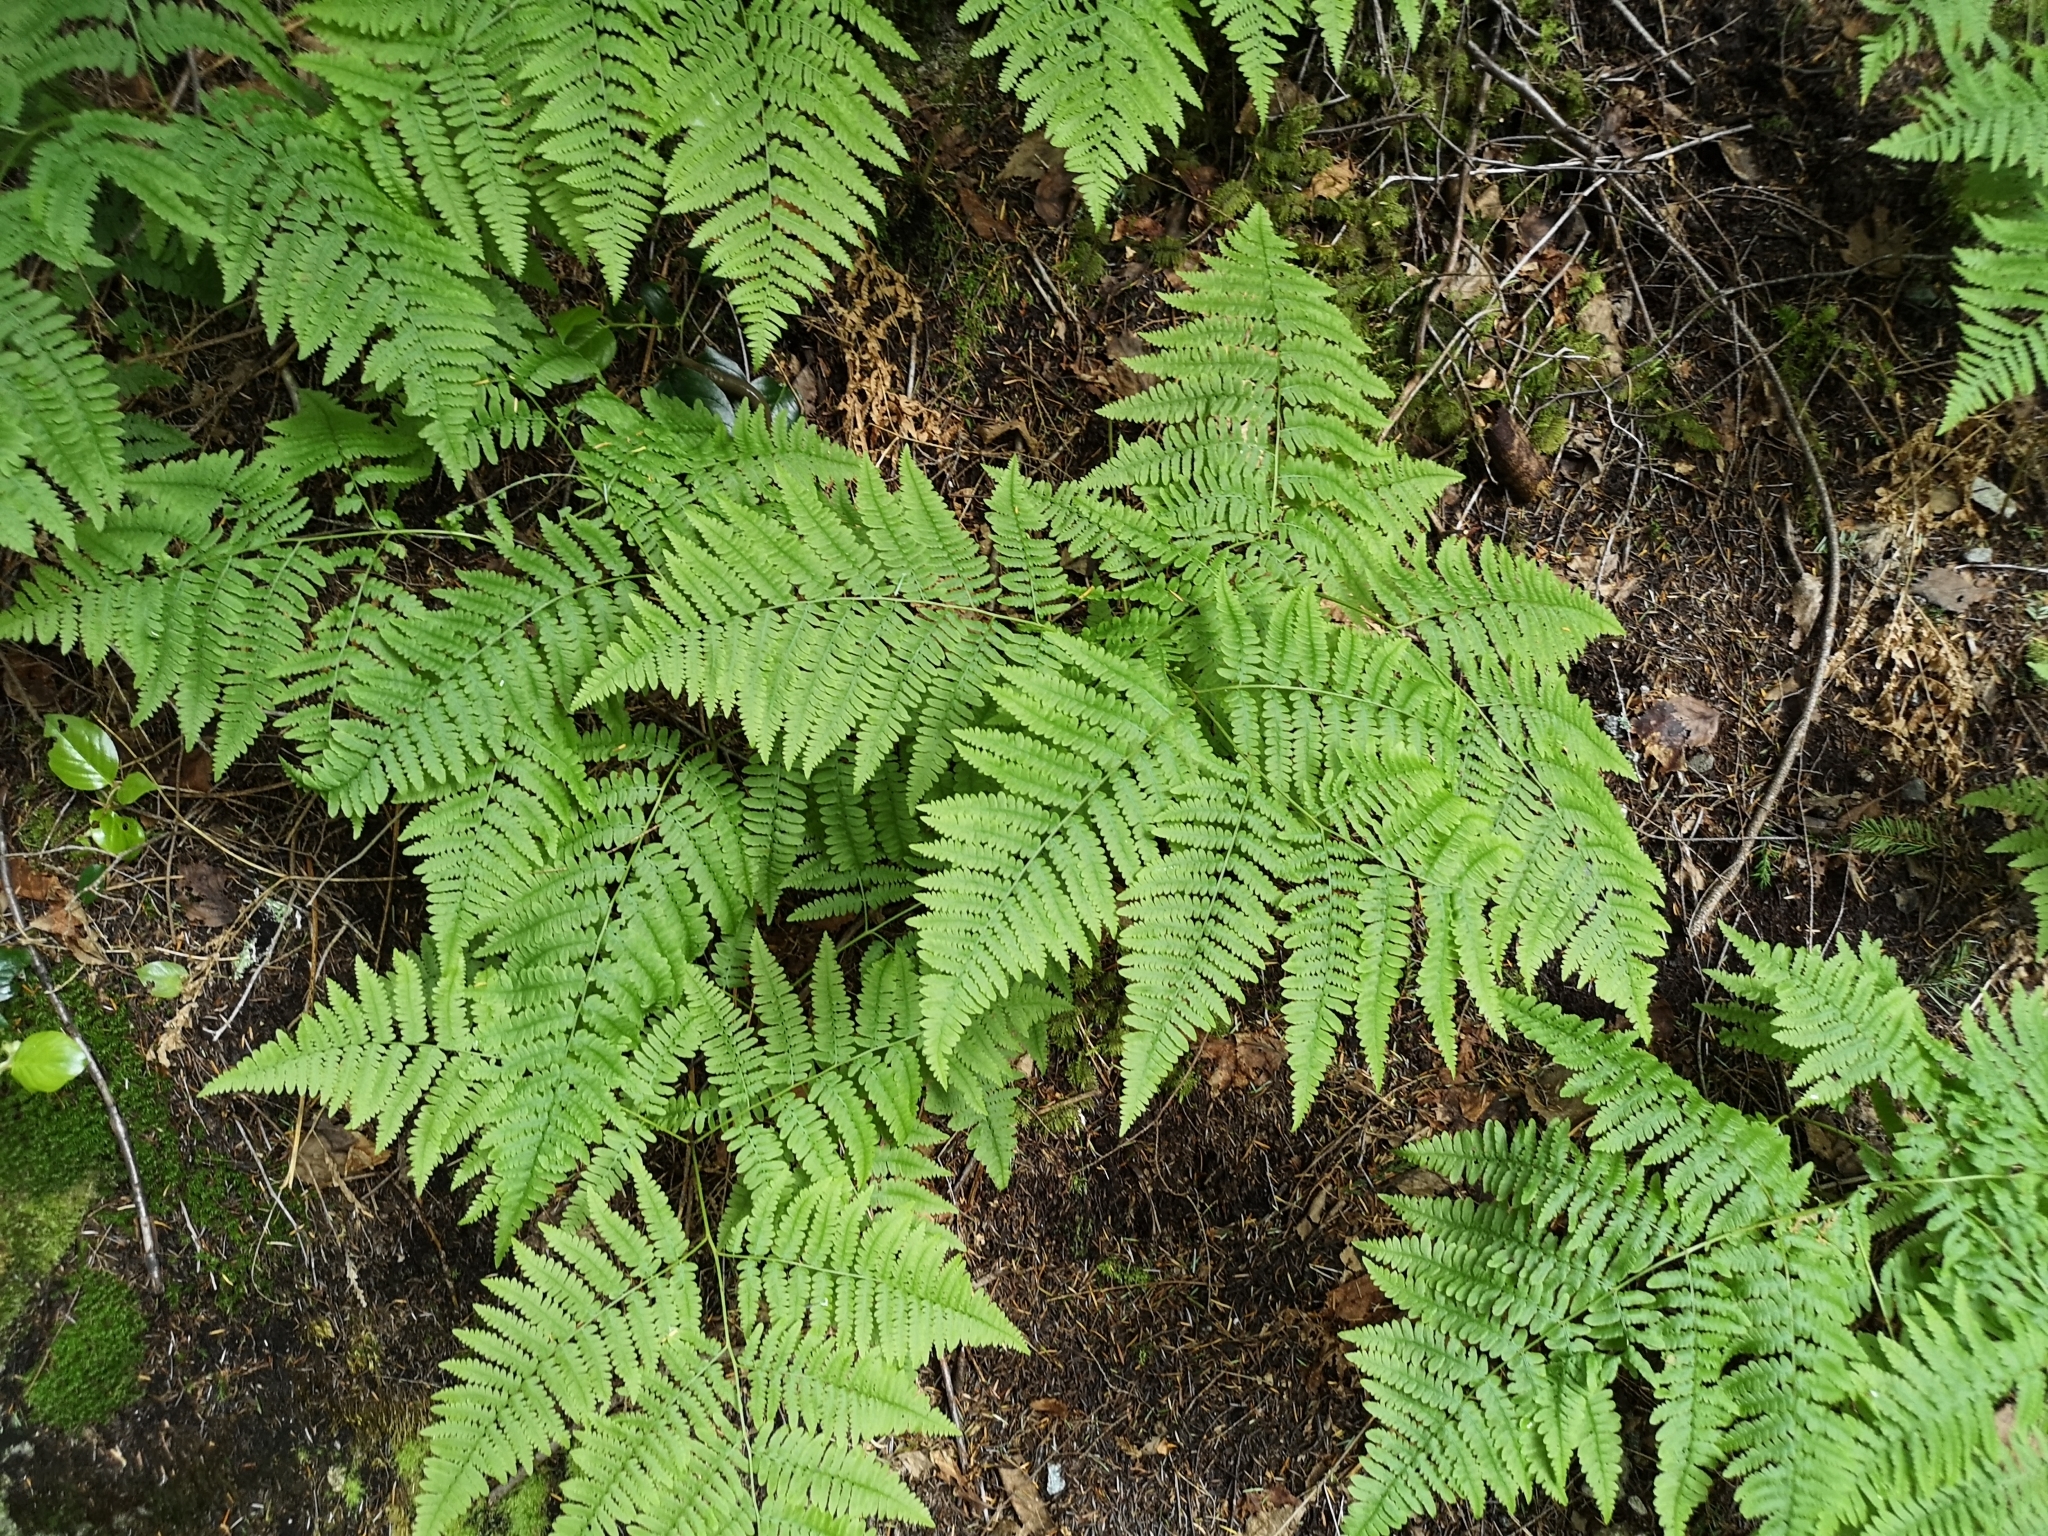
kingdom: Plantae
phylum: Tracheophyta
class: Polypodiopsida
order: Polypodiales
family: Dennstaedtiaceae
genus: Pteridium
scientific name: Pteridium aquilinum
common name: Bracken
